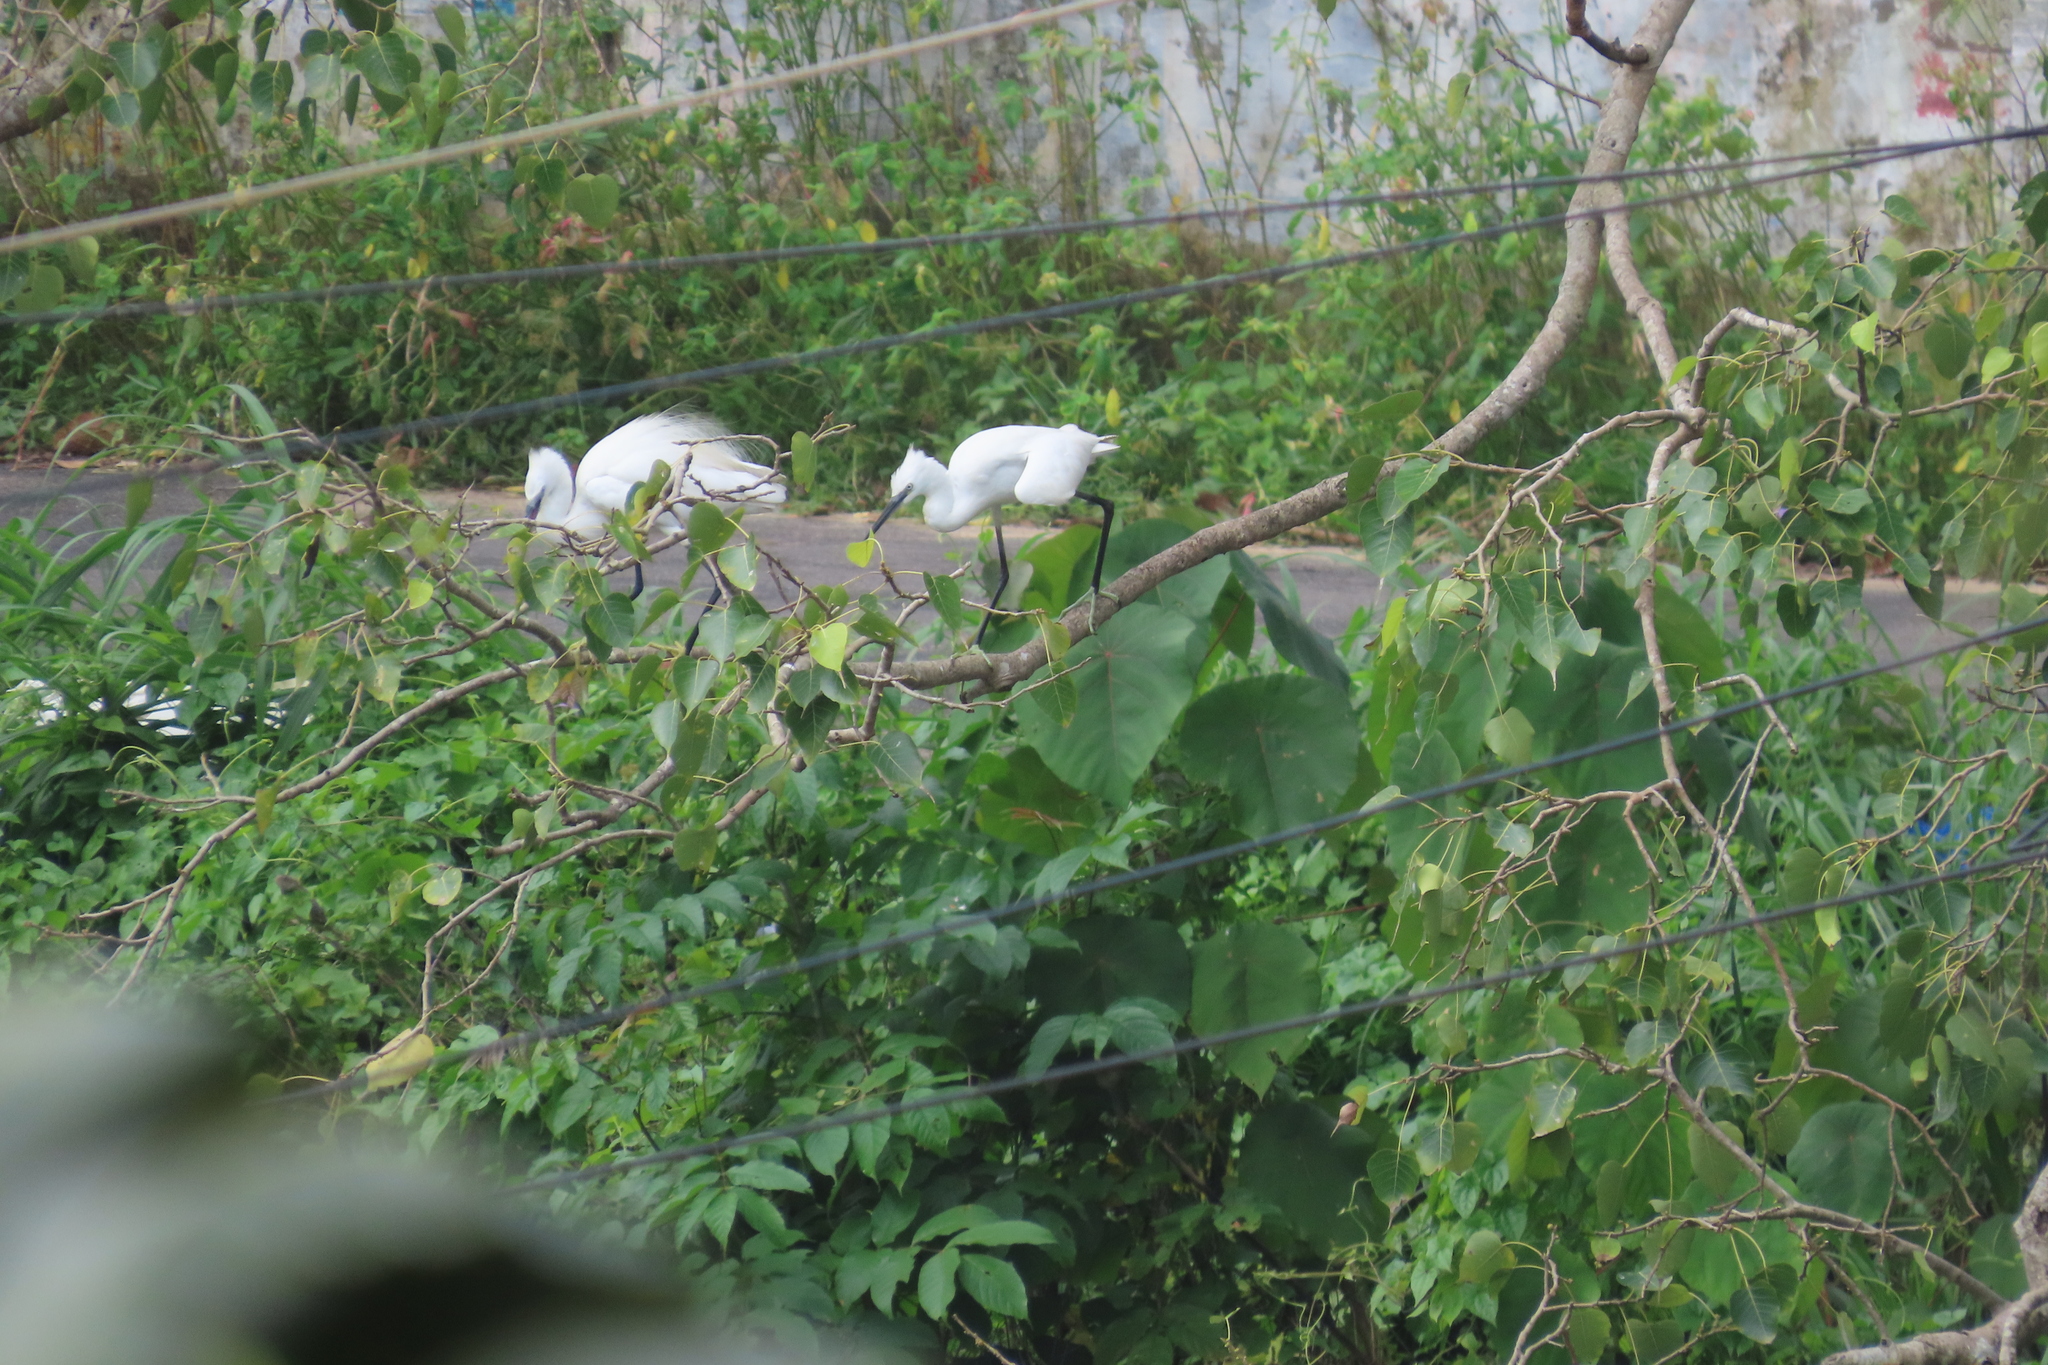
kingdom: Animalia
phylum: Chordata
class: Aves
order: Pelecaniformes
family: Ardeidae
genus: Egretta
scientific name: Egretta garzetta
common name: Little egret
